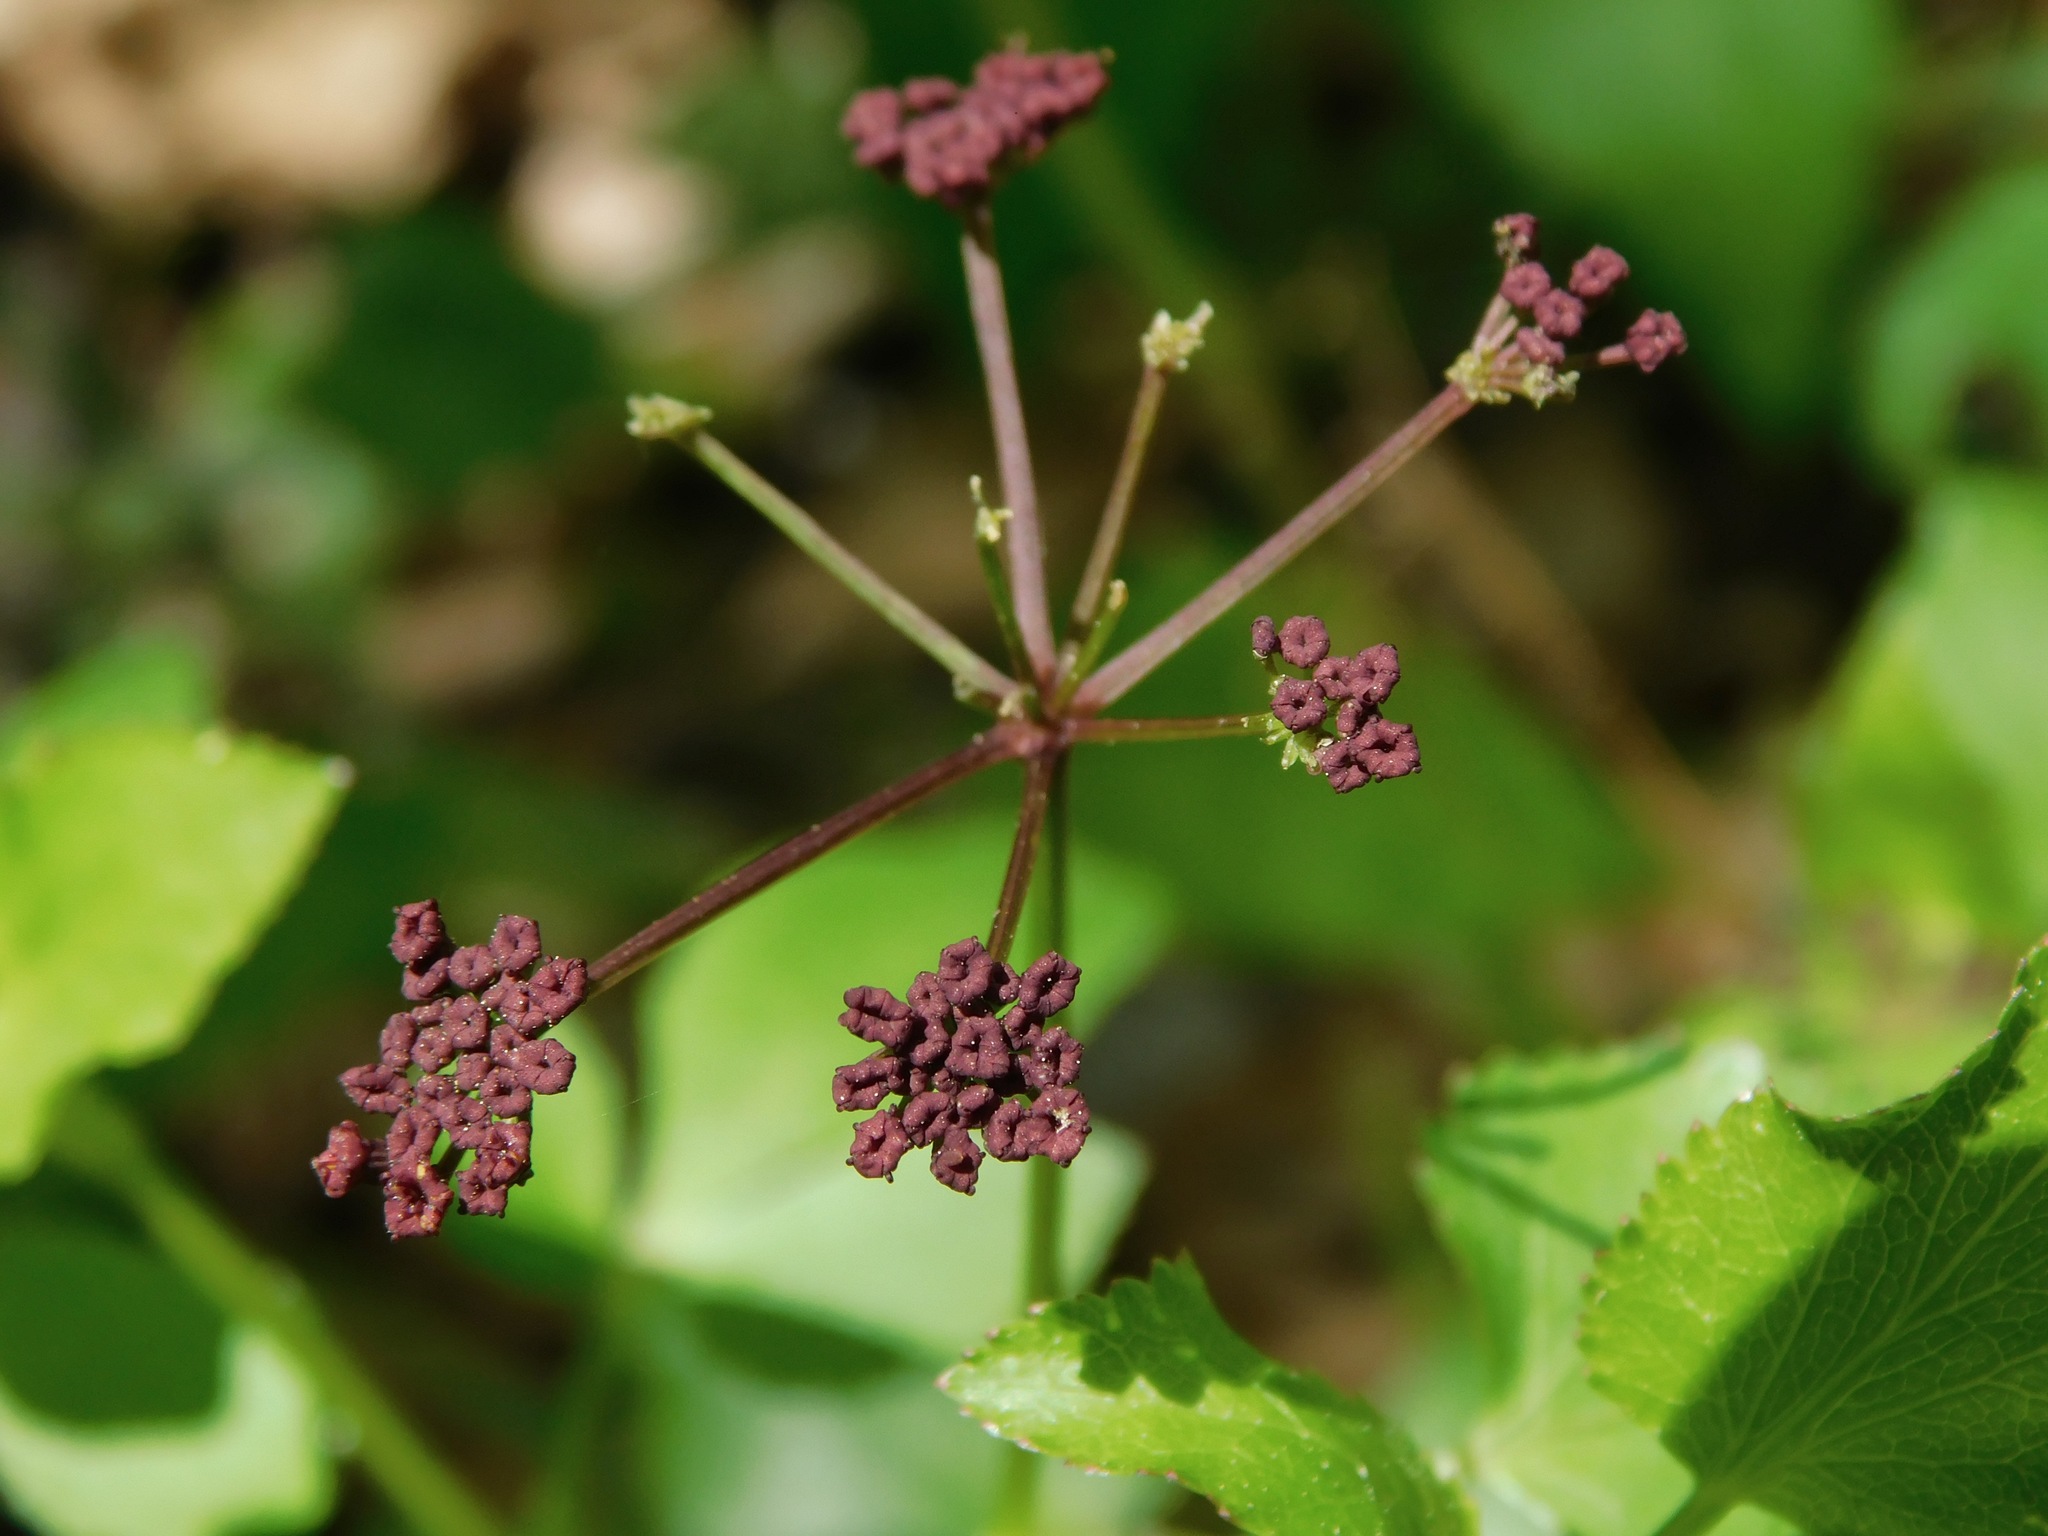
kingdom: Plantae
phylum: Tracheophyta
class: Magnoliopsida
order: Apiales
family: Apiaceae
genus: Thaspium
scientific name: Thaspium trifoliatum
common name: Purple meadow-parsnip
